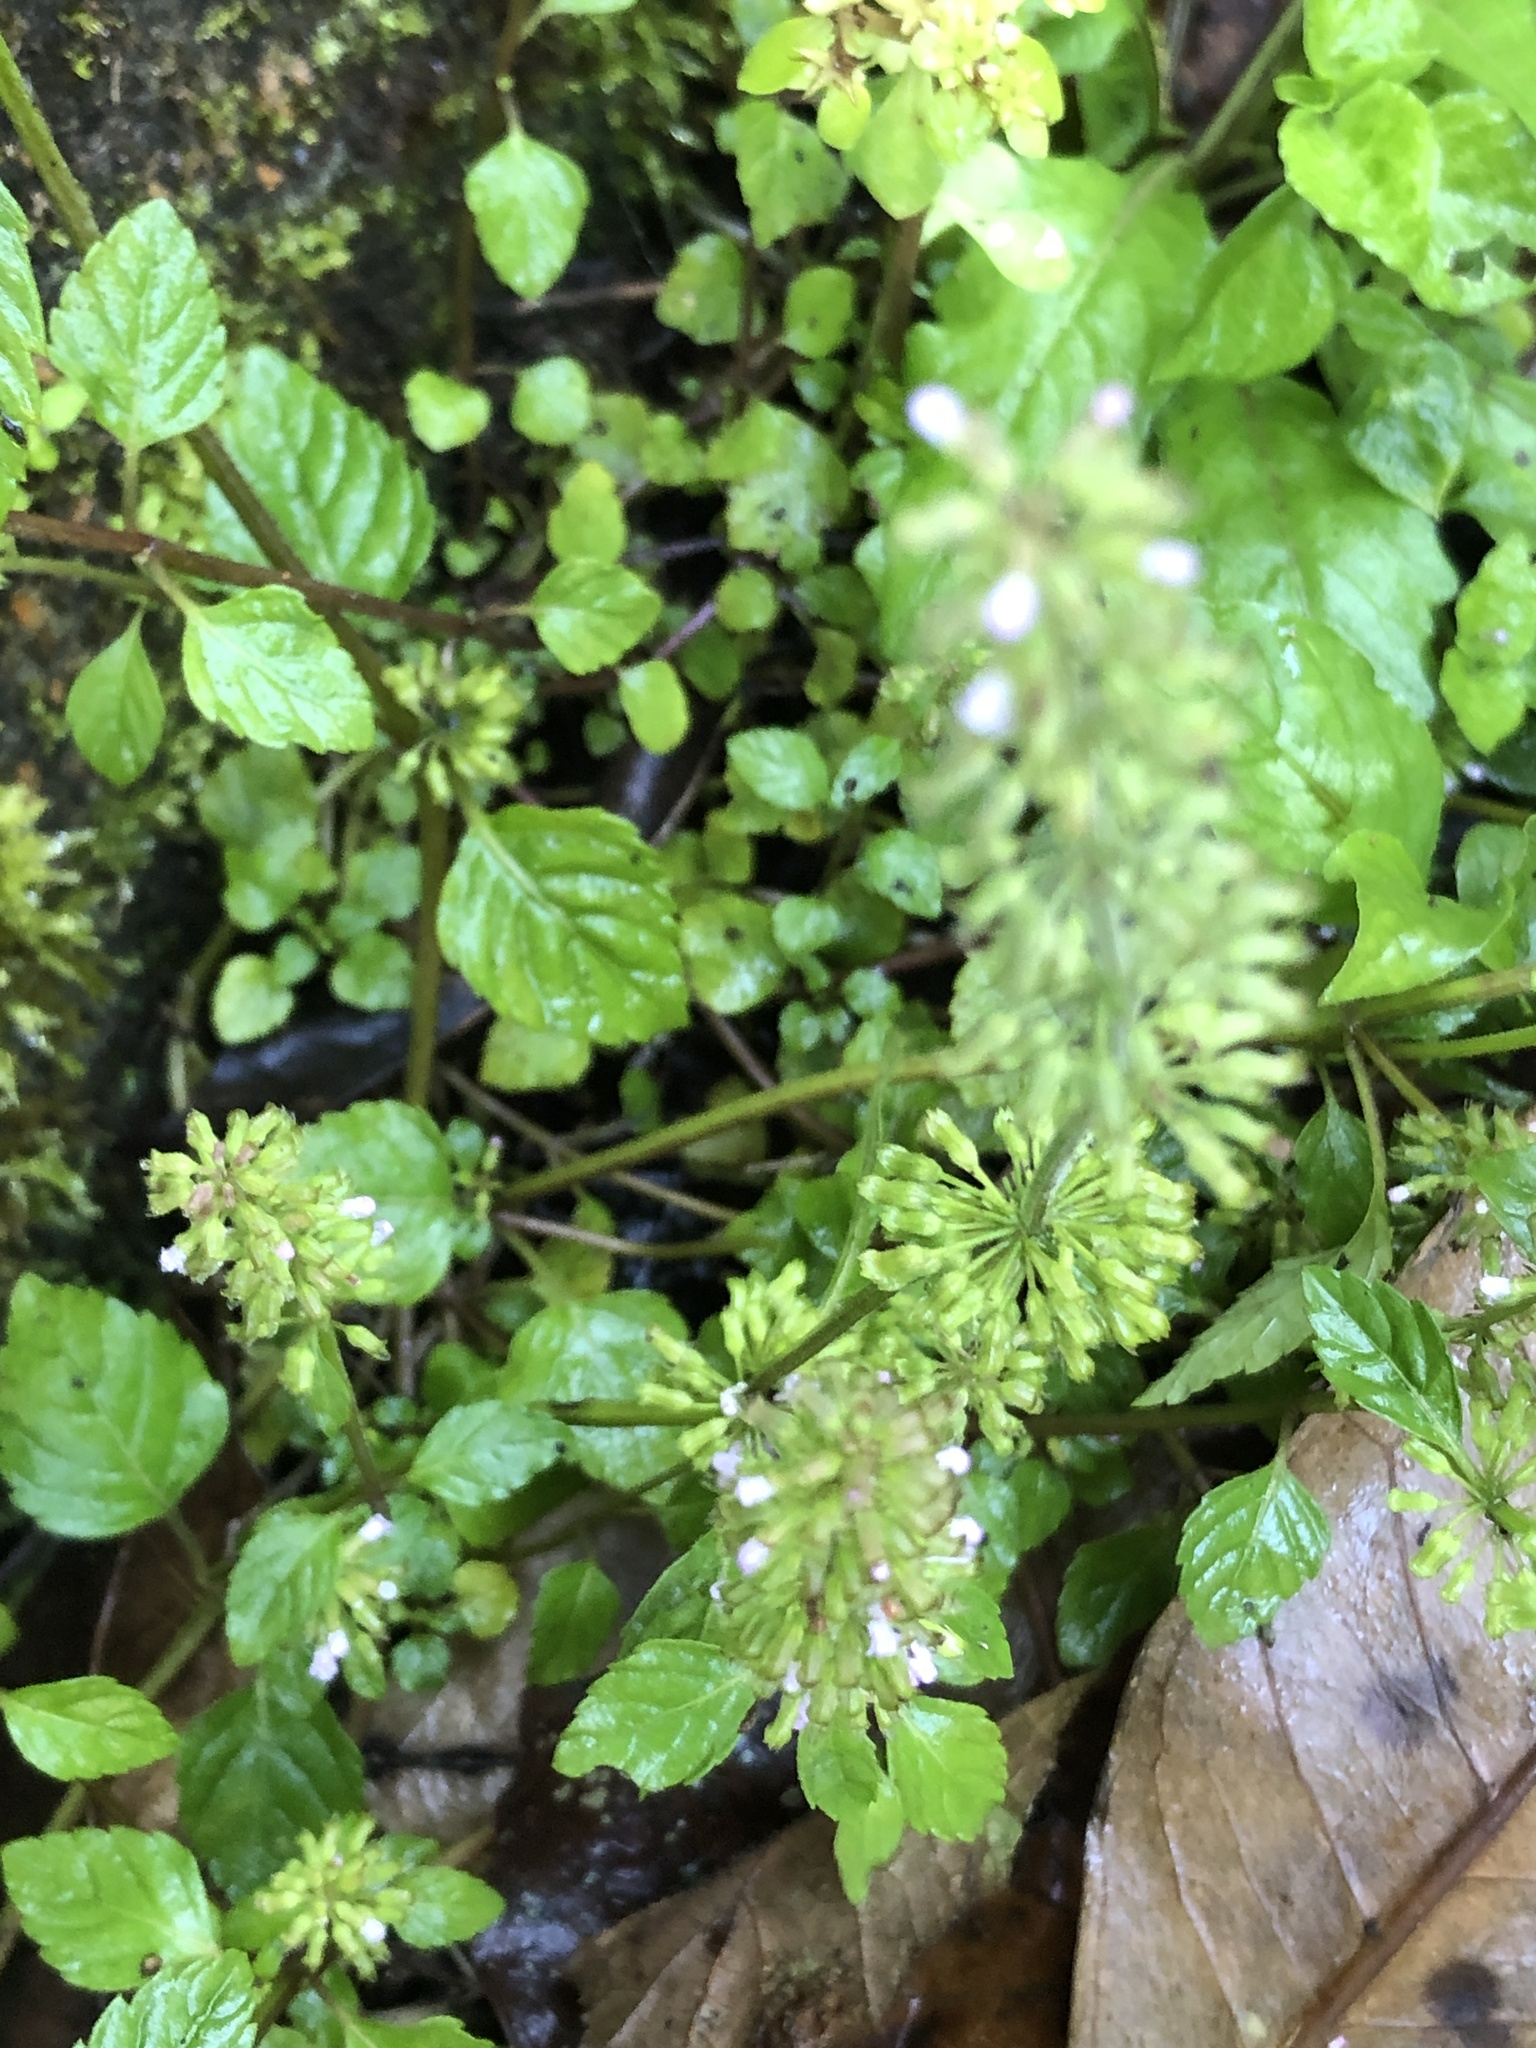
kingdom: Plantae
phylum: Tracheophyta
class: Magnoliopsida
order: Lamiales
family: Lamiaceae
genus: Clinopodium
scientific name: Clinopodium gracile
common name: Slender wild basil
